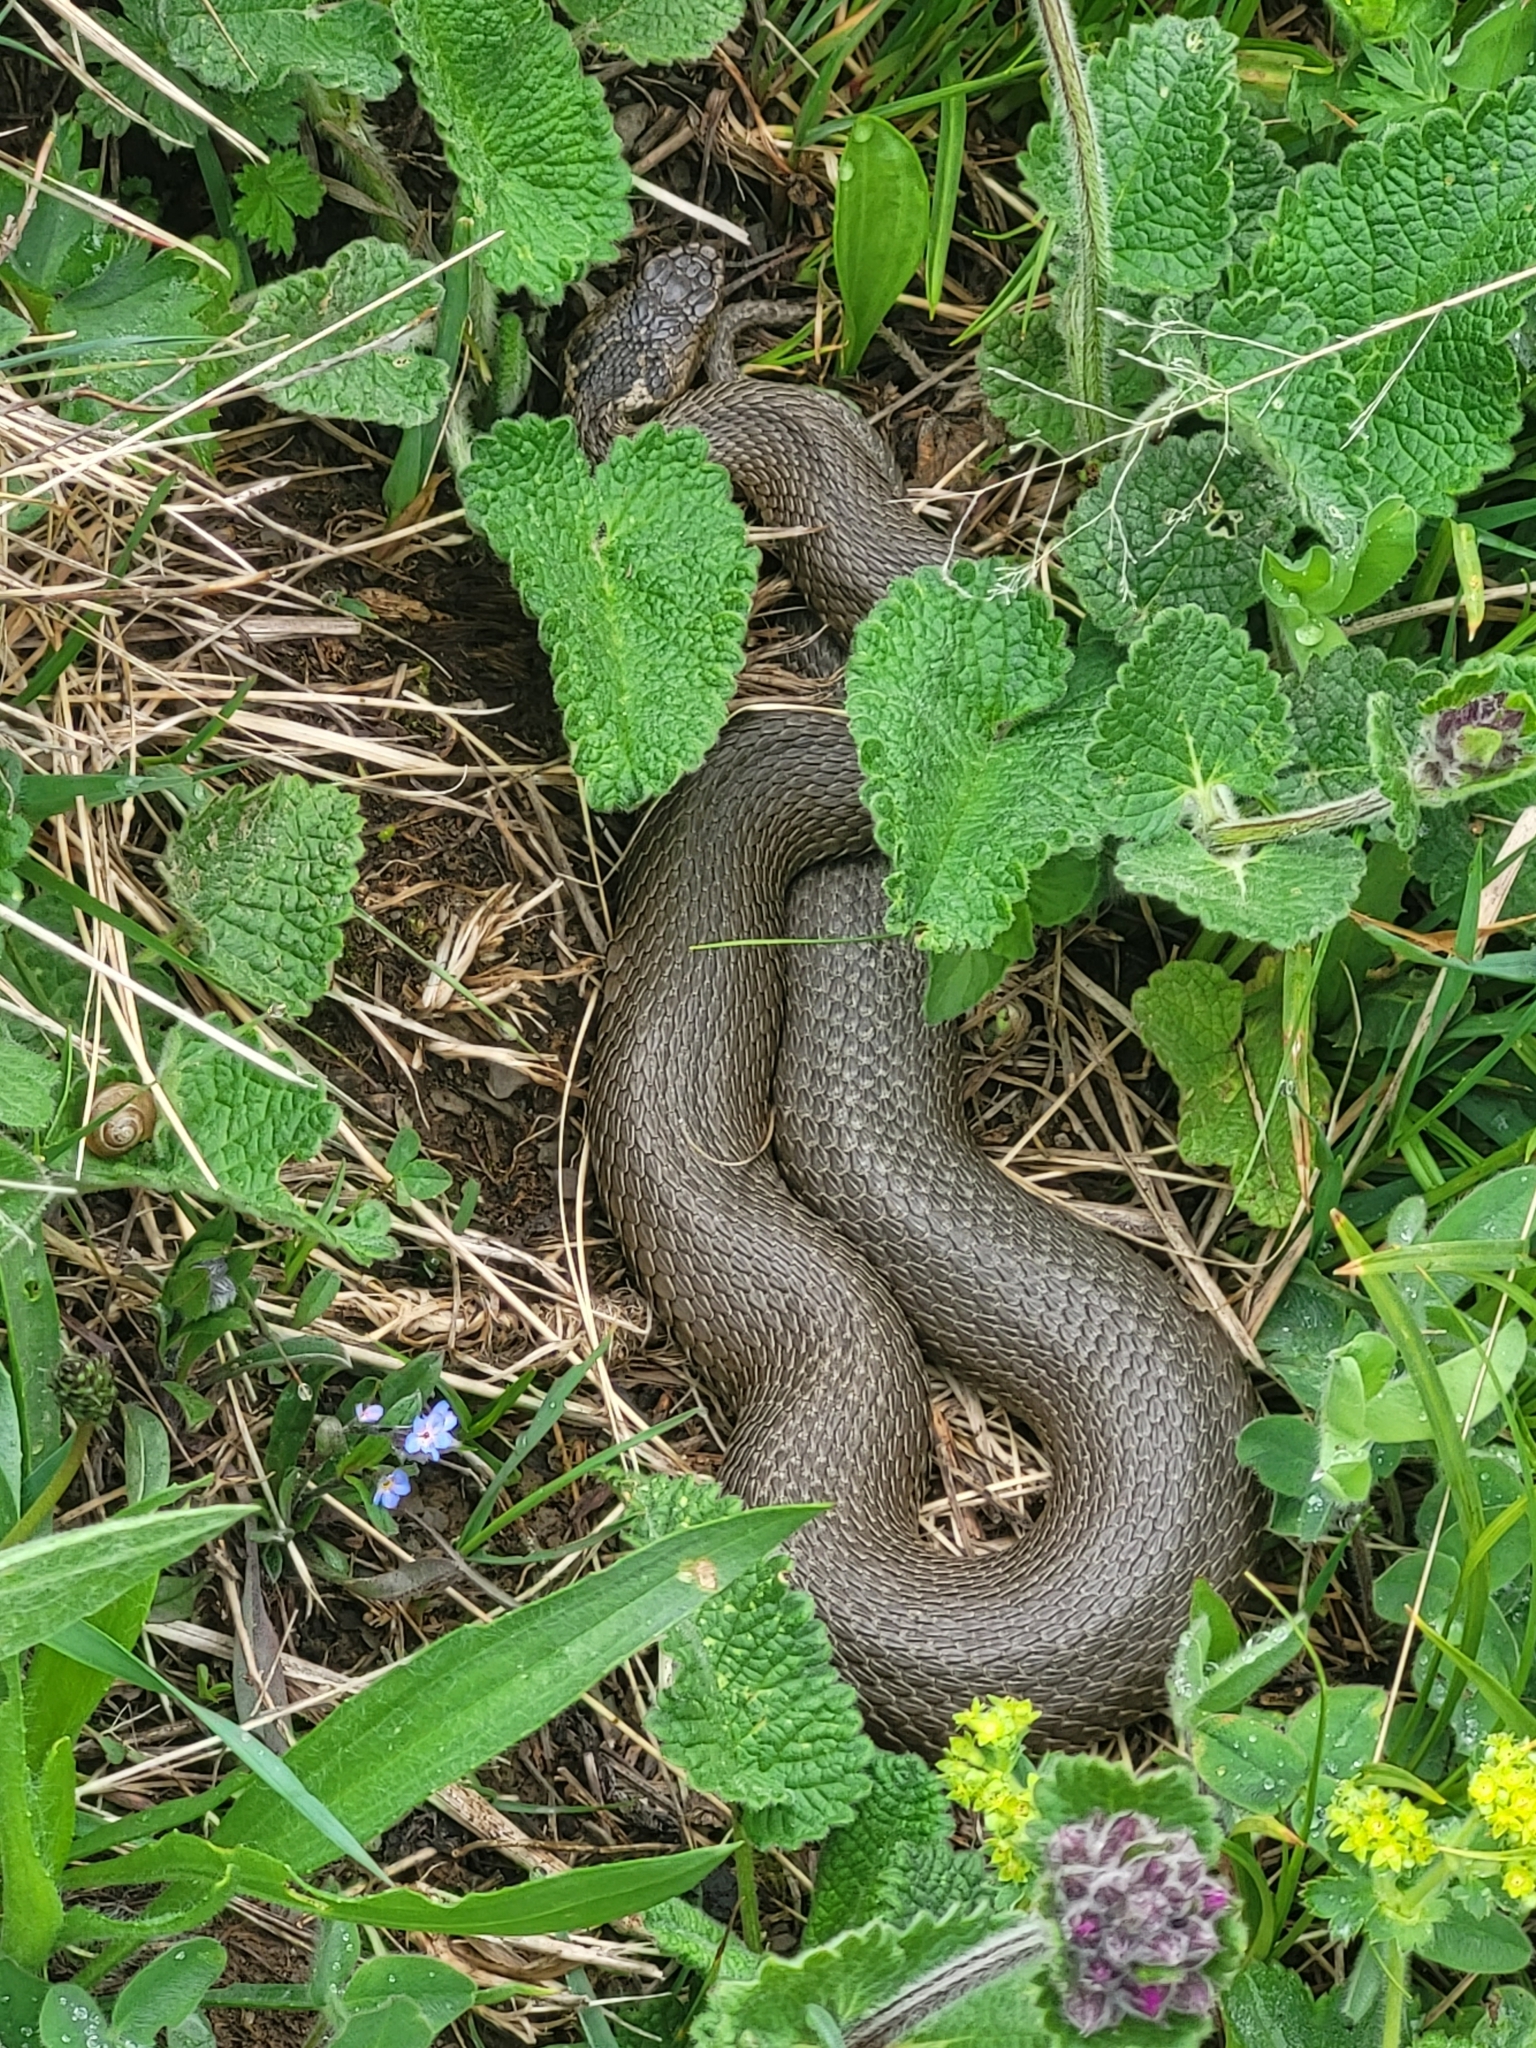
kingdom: Animalia
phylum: Chordata
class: Squamata
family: Viperidae
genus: Vipera
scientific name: Vipera dinniki
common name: Dinnik's viper
